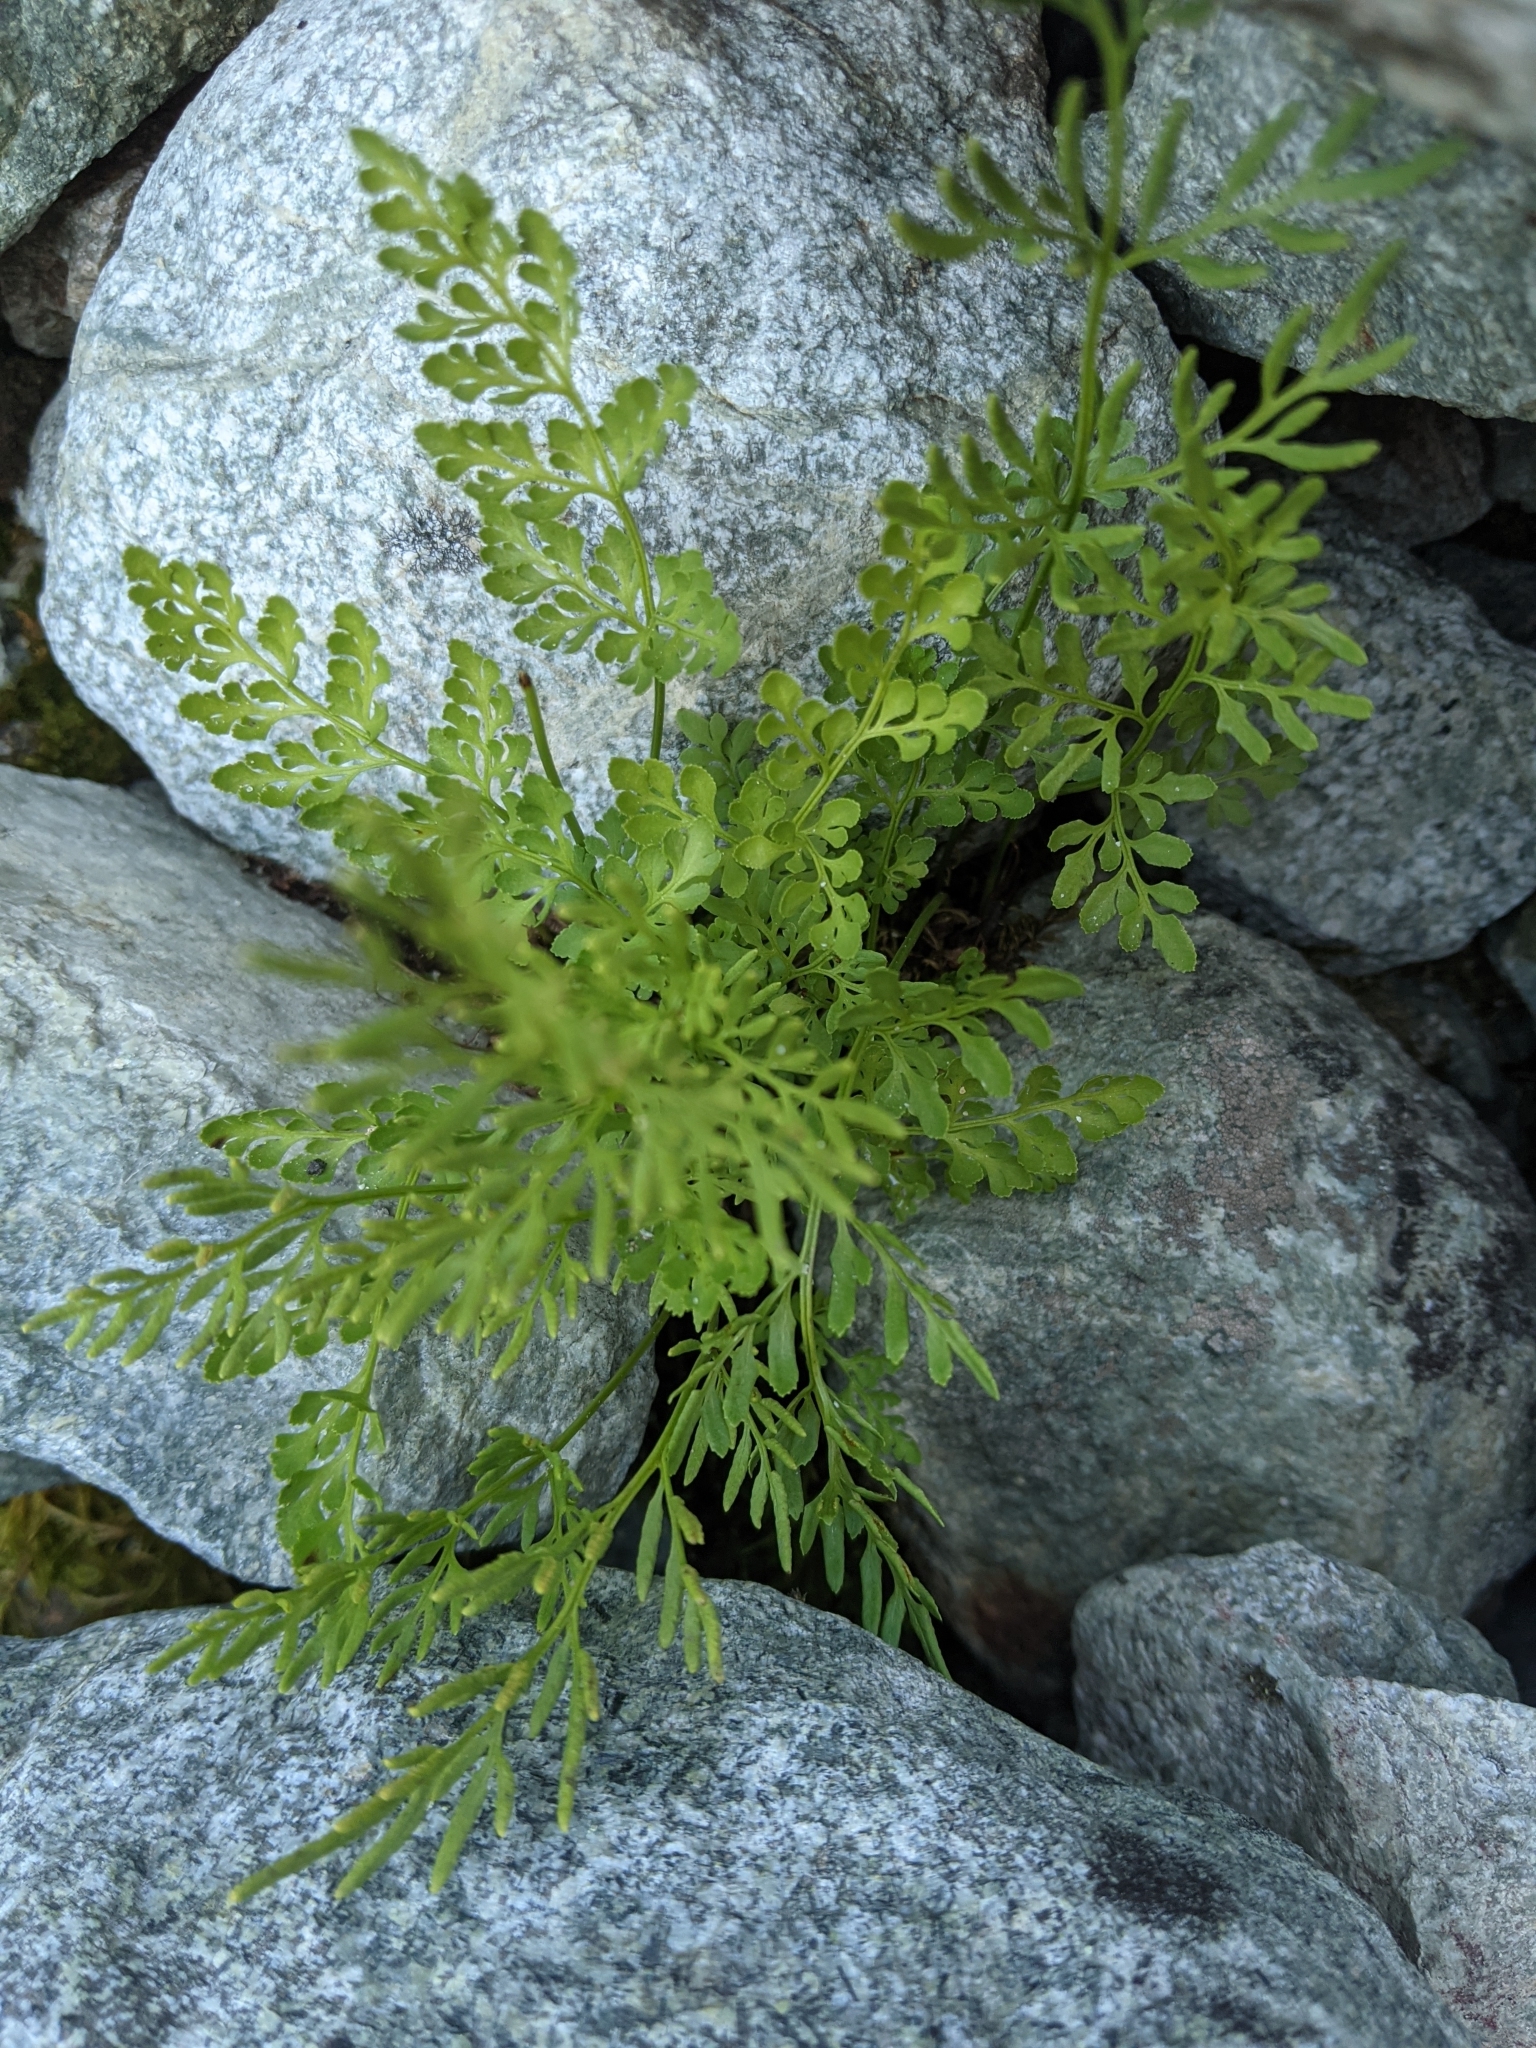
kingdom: Plantae
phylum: Tracheophyta
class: Polypodiopsida
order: Polypodiales
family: Pteridaceae
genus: Cryptogramma
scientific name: Cryptogramma cascadensis
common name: Cascade parsley fern
